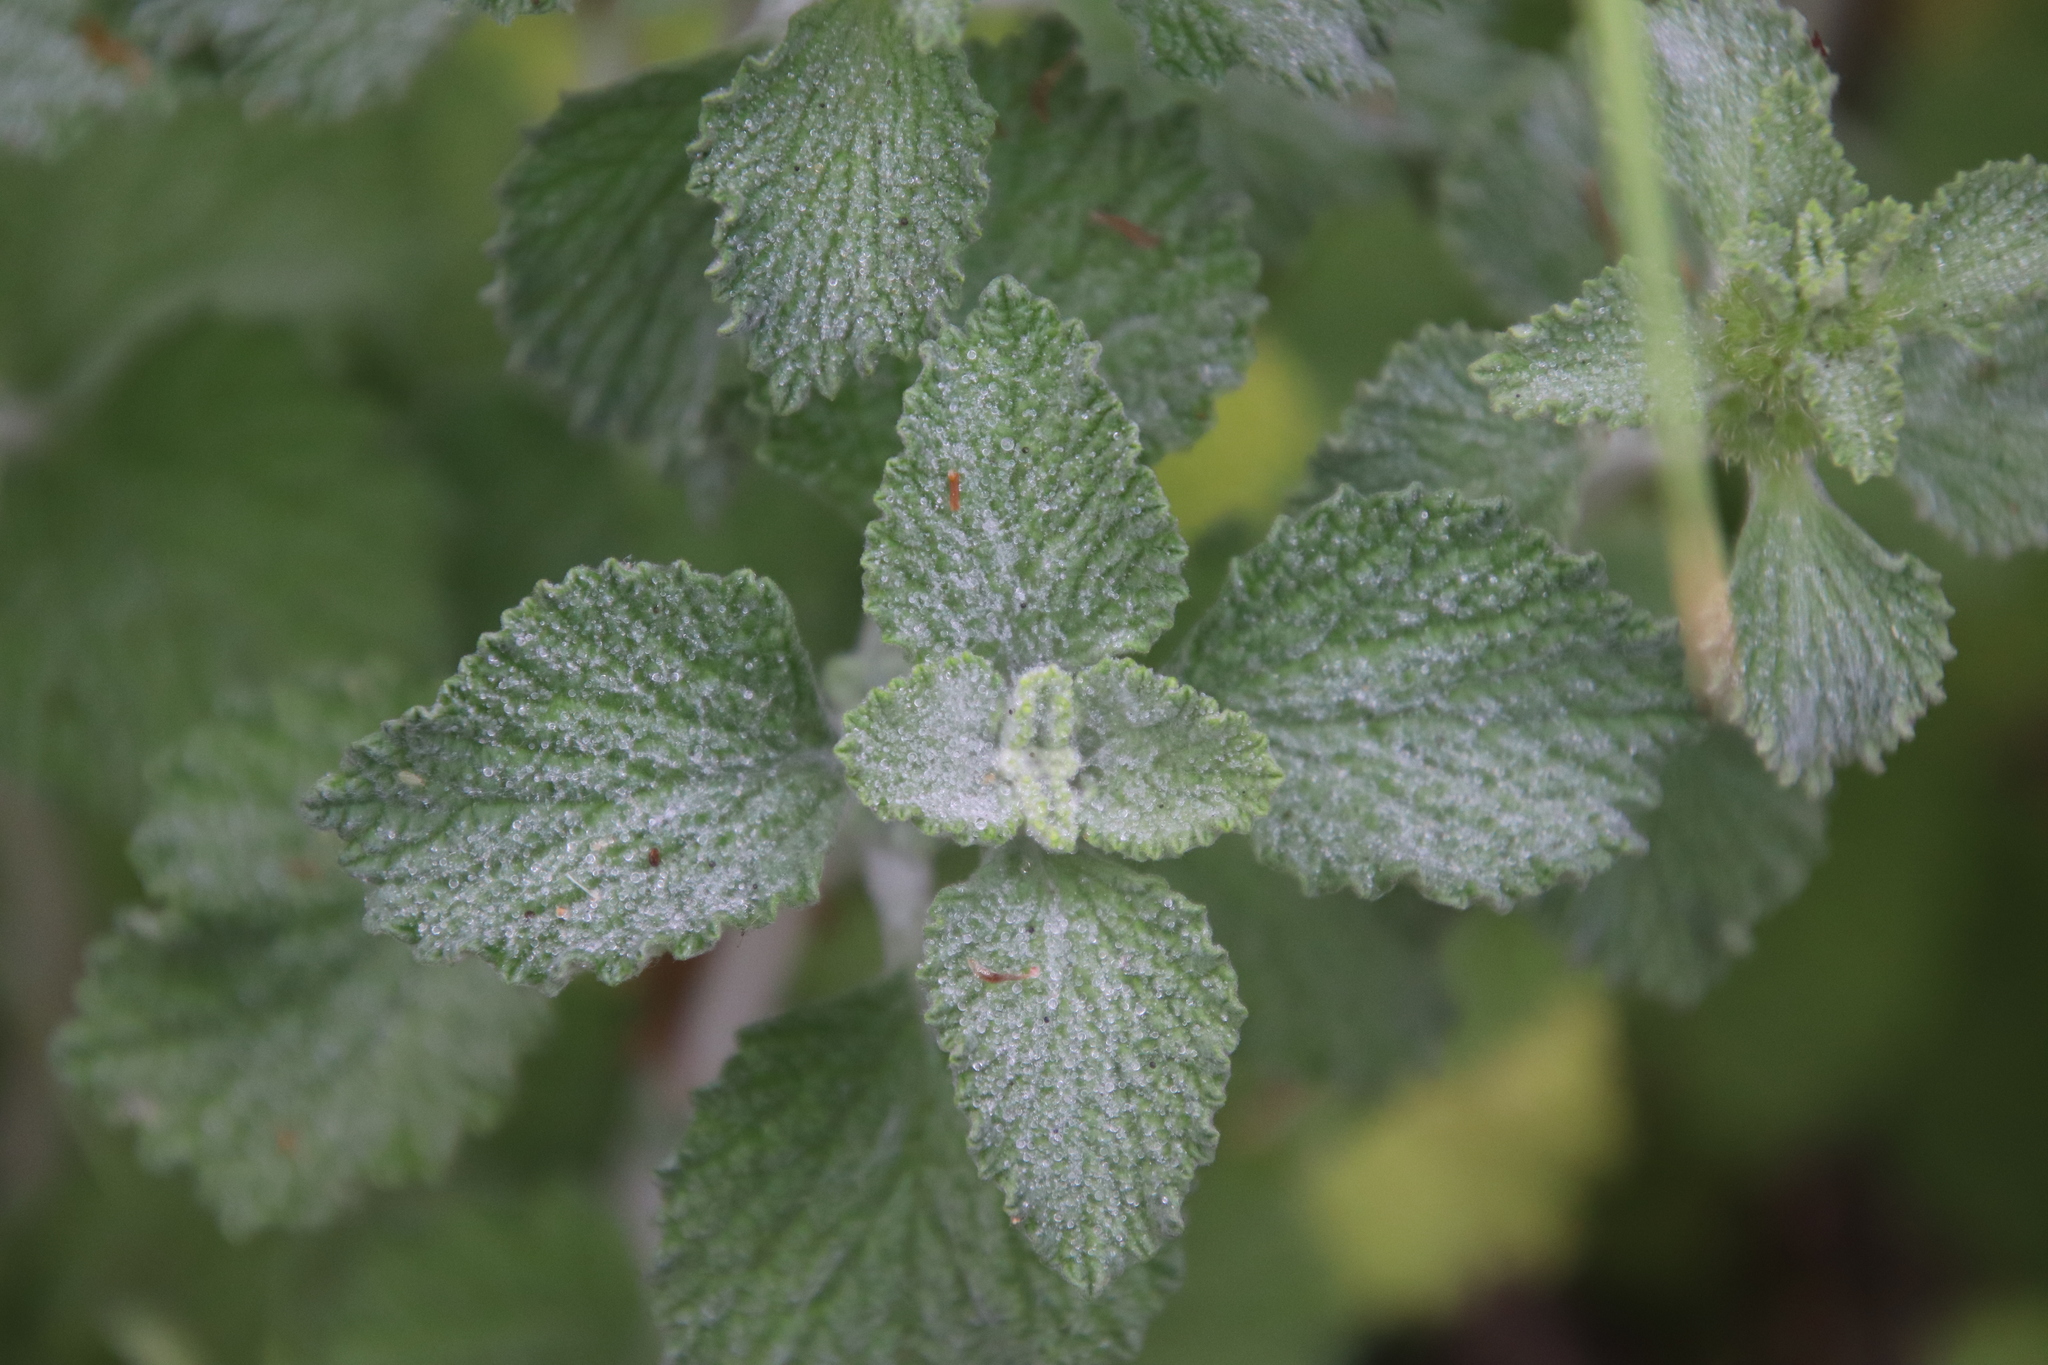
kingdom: Plantae
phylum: Tracheophyta
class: Magnoliopsida
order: Lamiales
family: Lamiaceae
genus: Marrubium
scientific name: Marrubium vulgare
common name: Horehound
